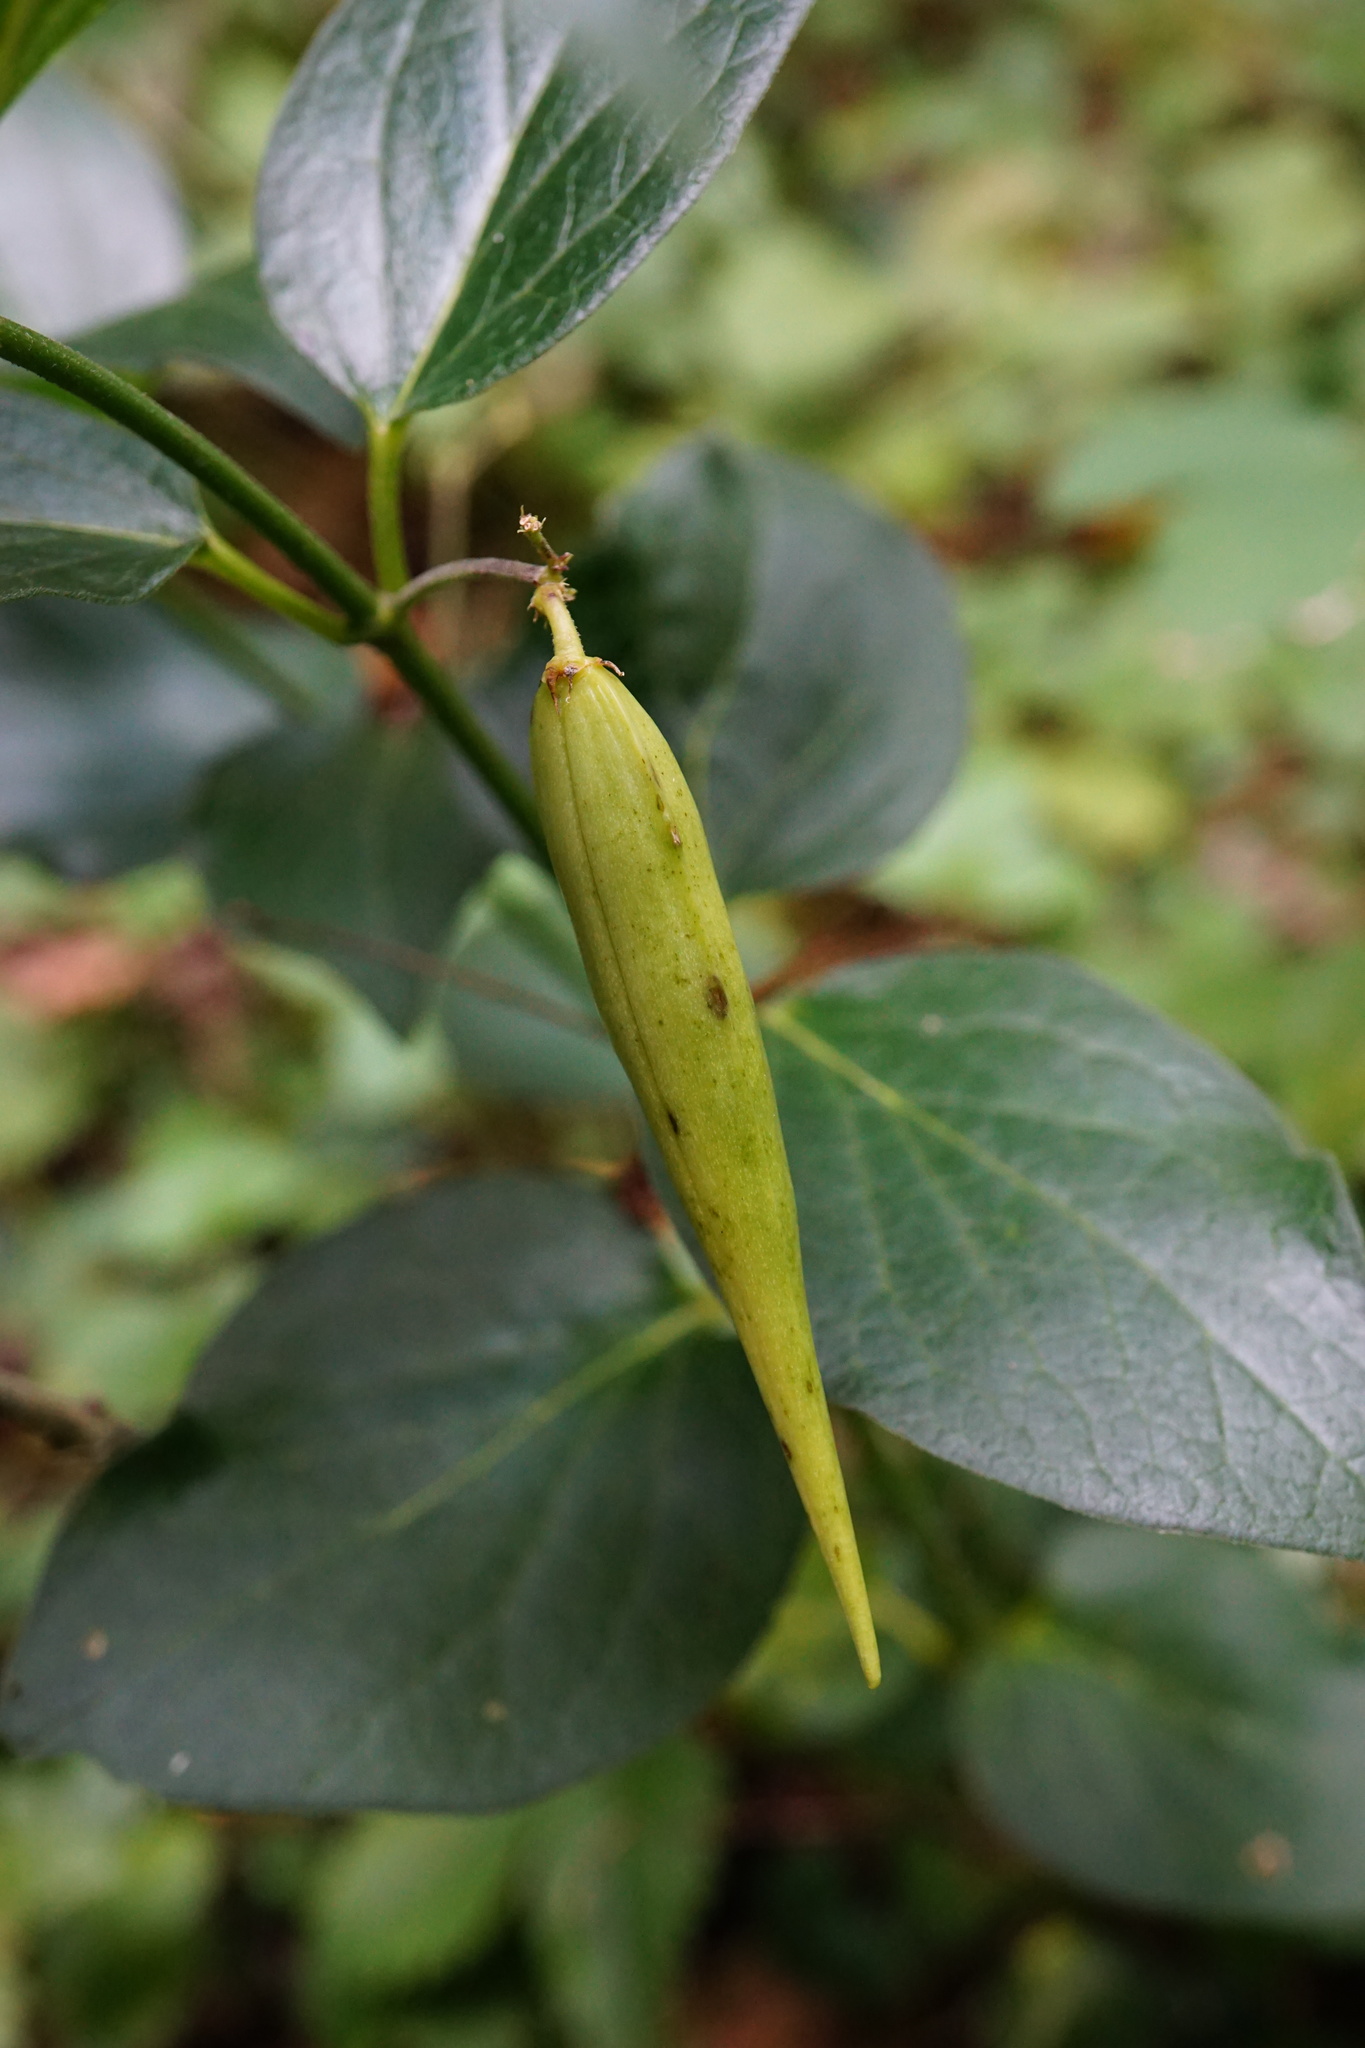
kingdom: Plantae
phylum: Tracheophyta
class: Magnoliopsida
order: Gentianales
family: Apocynaceae
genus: Vincetoxicum
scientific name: Vincetoxicum hirundinaria
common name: White swallowwort
